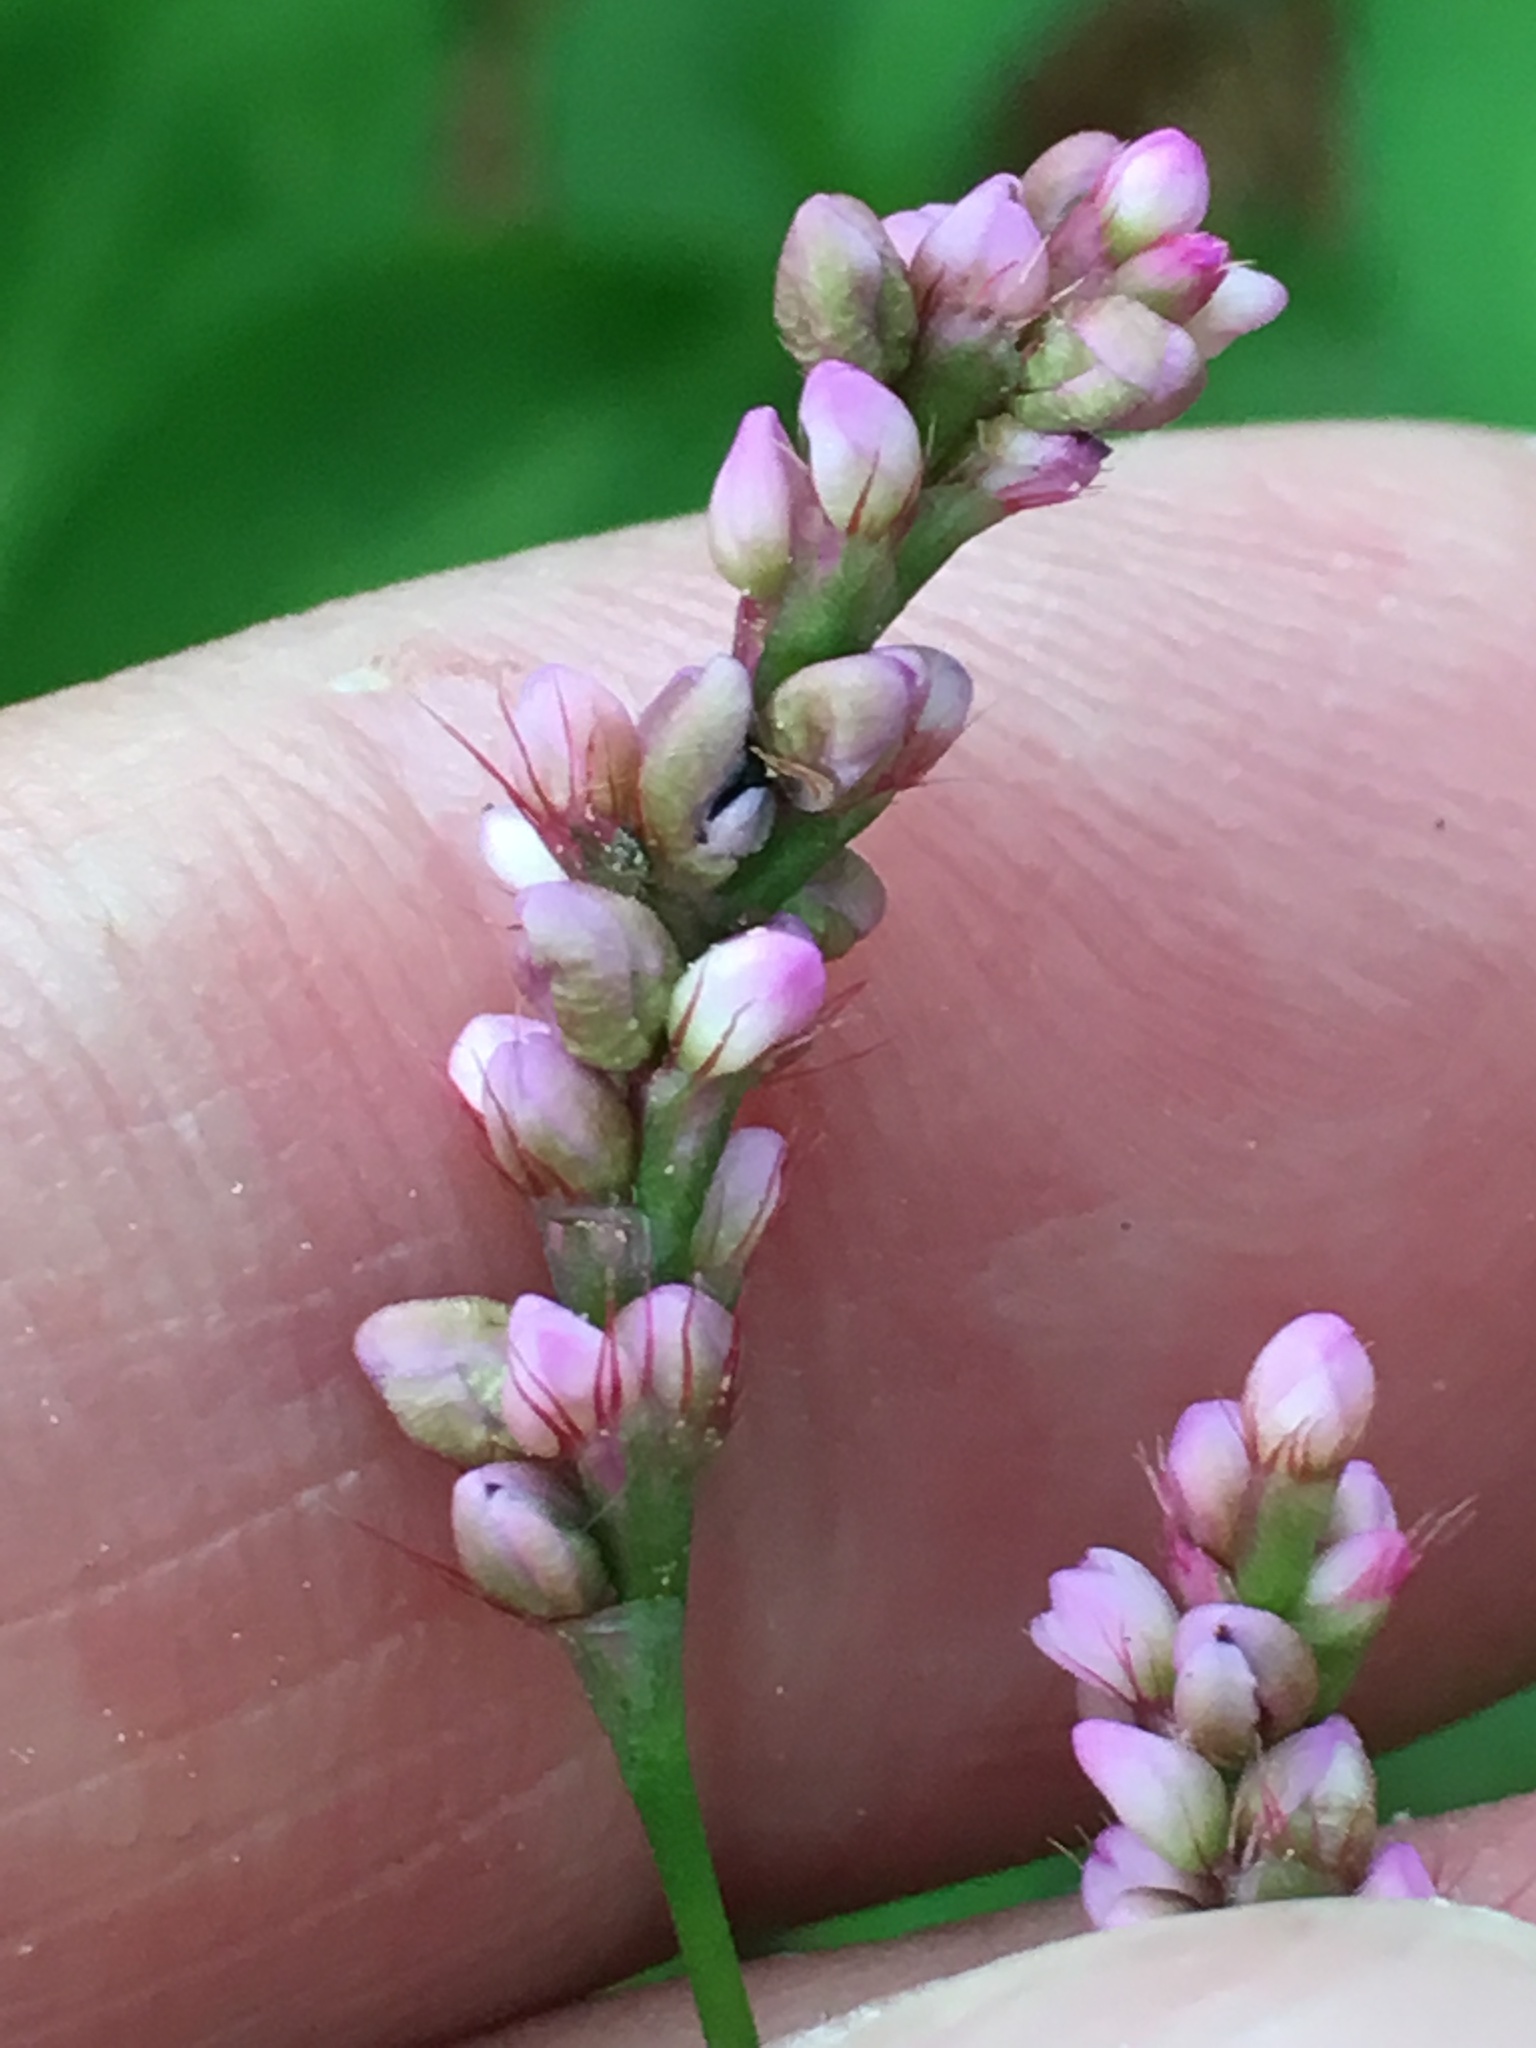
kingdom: Plantae
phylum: Tracheophyta
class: Magnoliopsida
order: Caryophyllales
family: Polygonaceae
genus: Persicaria
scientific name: Persicaria longiseta
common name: Bristly lady's-thumb
